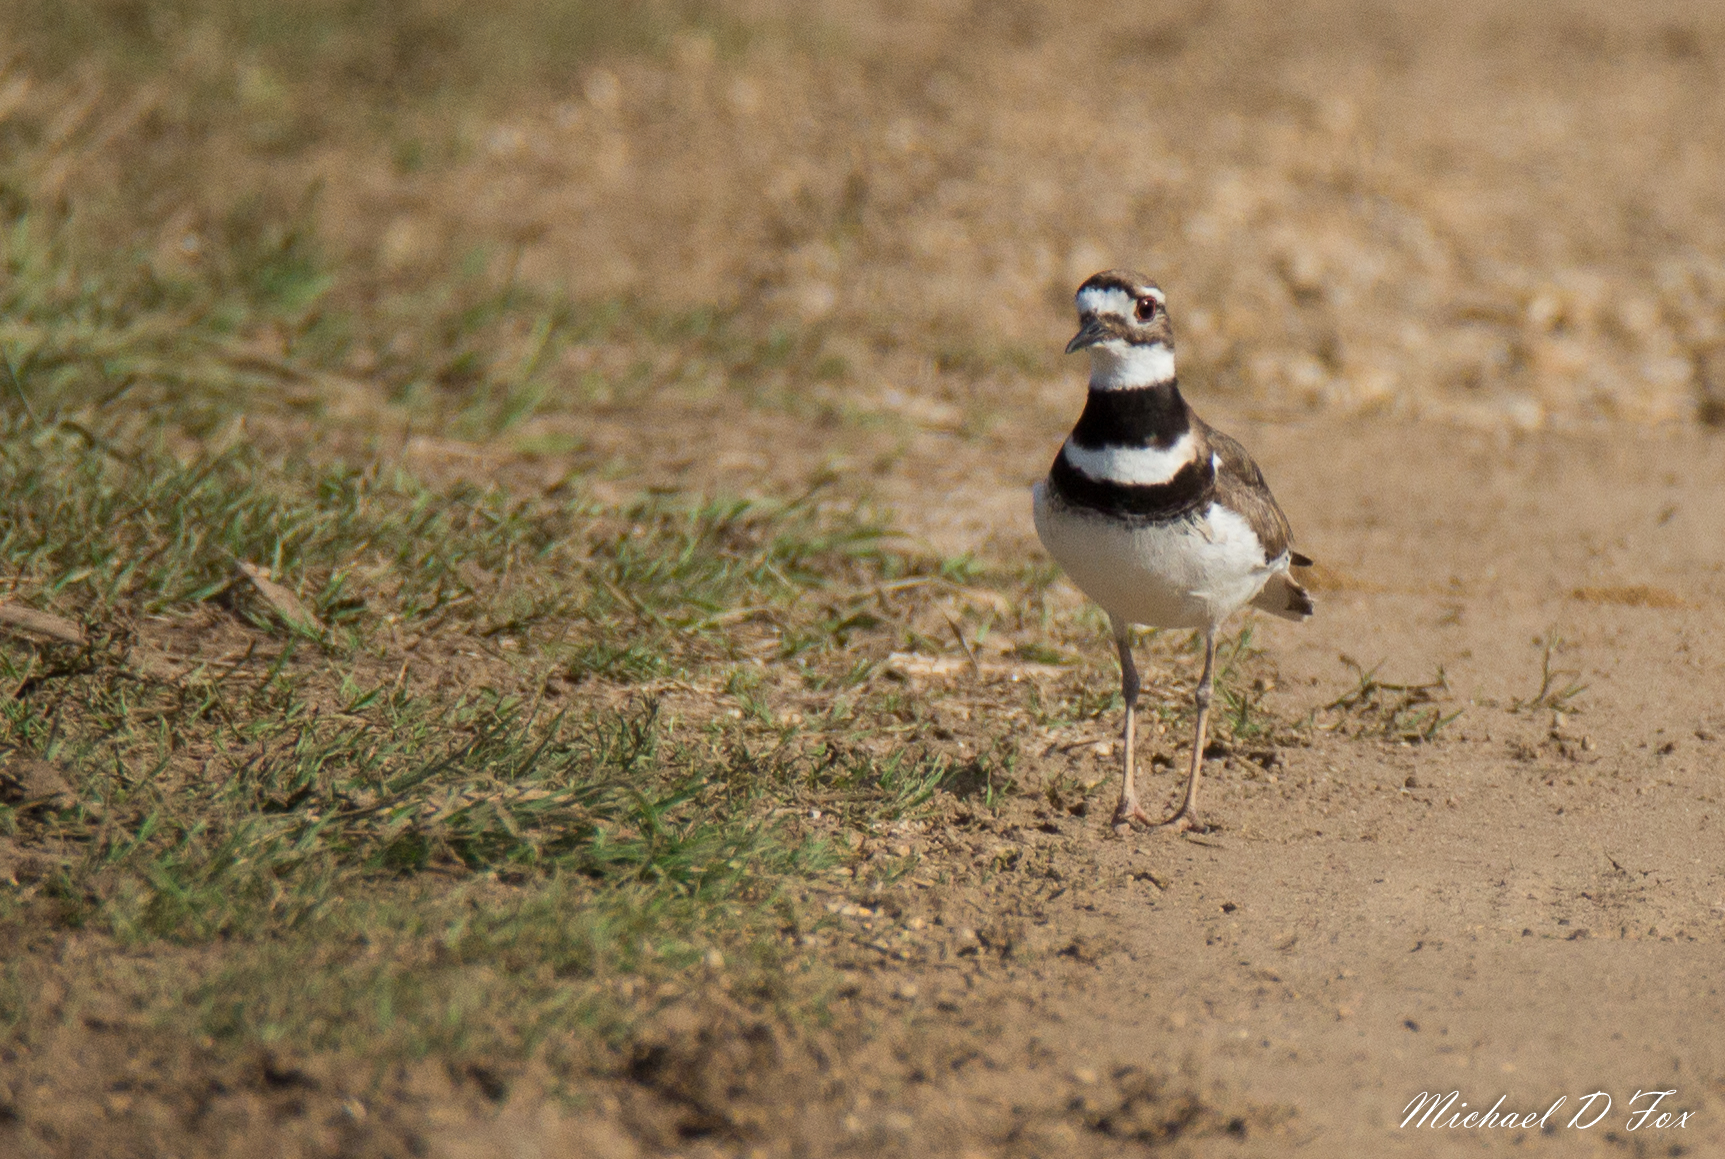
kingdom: Animalia
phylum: Chordata
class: Aves
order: Charadriiformes
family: Charadriidae
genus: Charadrius
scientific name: Charadrius vociferus
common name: Killdeer
